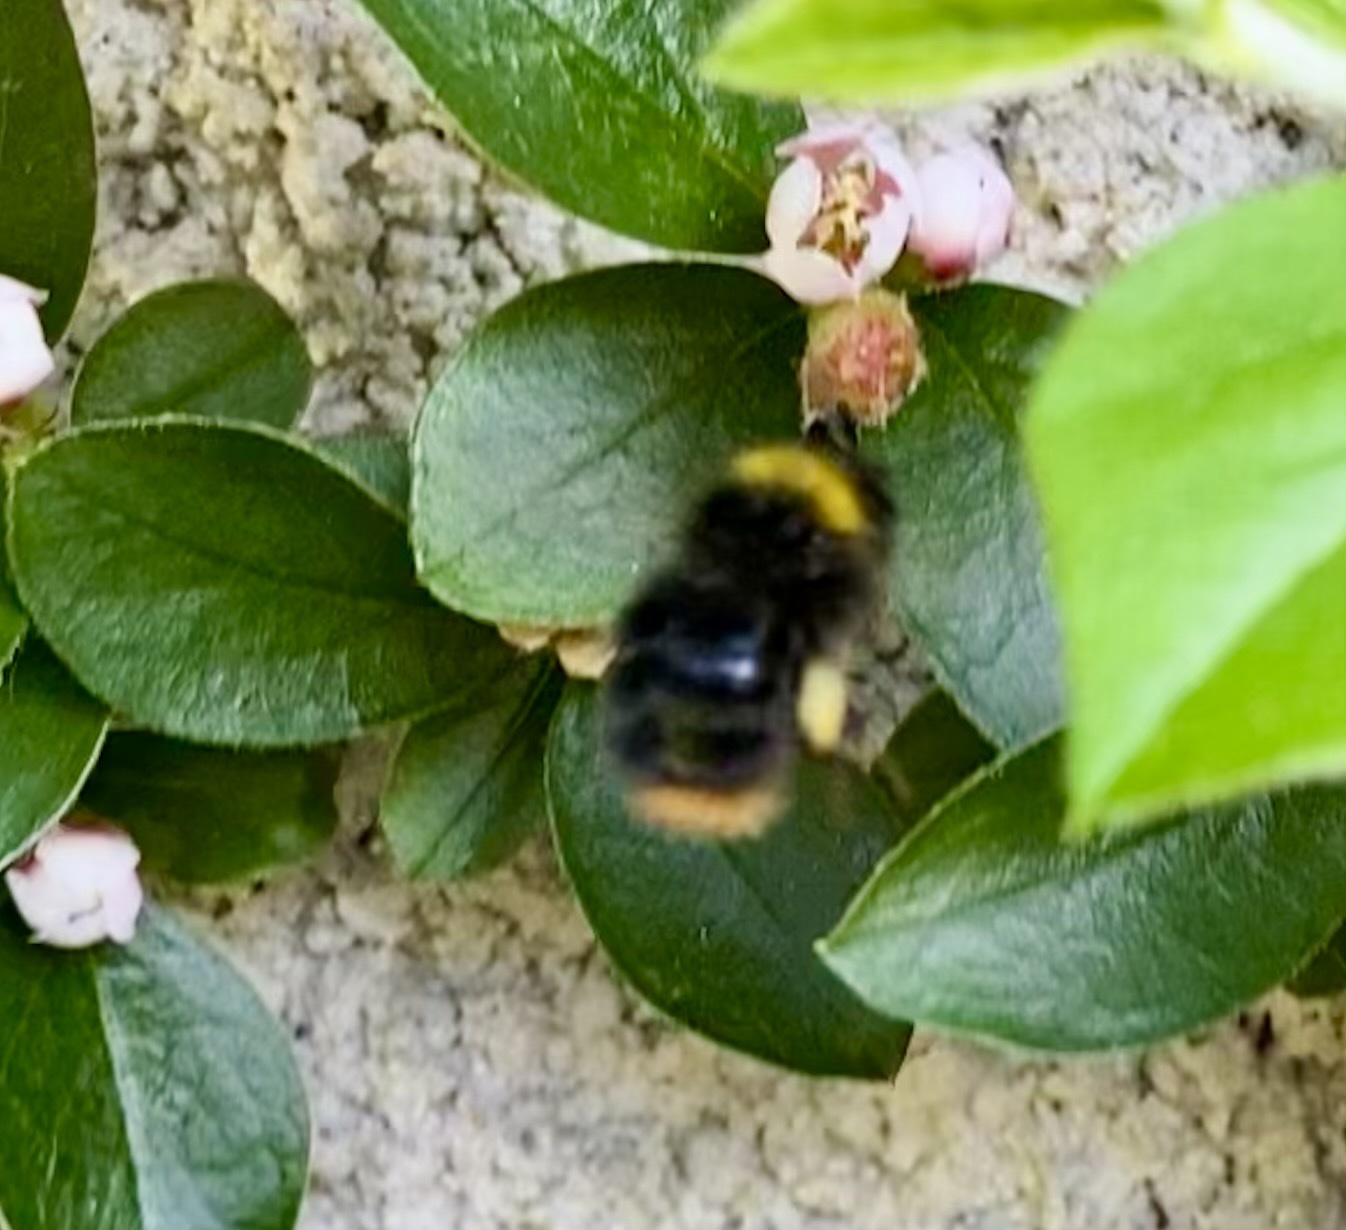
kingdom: Animalia
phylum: Arthropoda
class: Insecta
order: Hymenoptera
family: Apidae
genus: Bombus
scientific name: Bombus pratorum
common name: Early humble-bee
